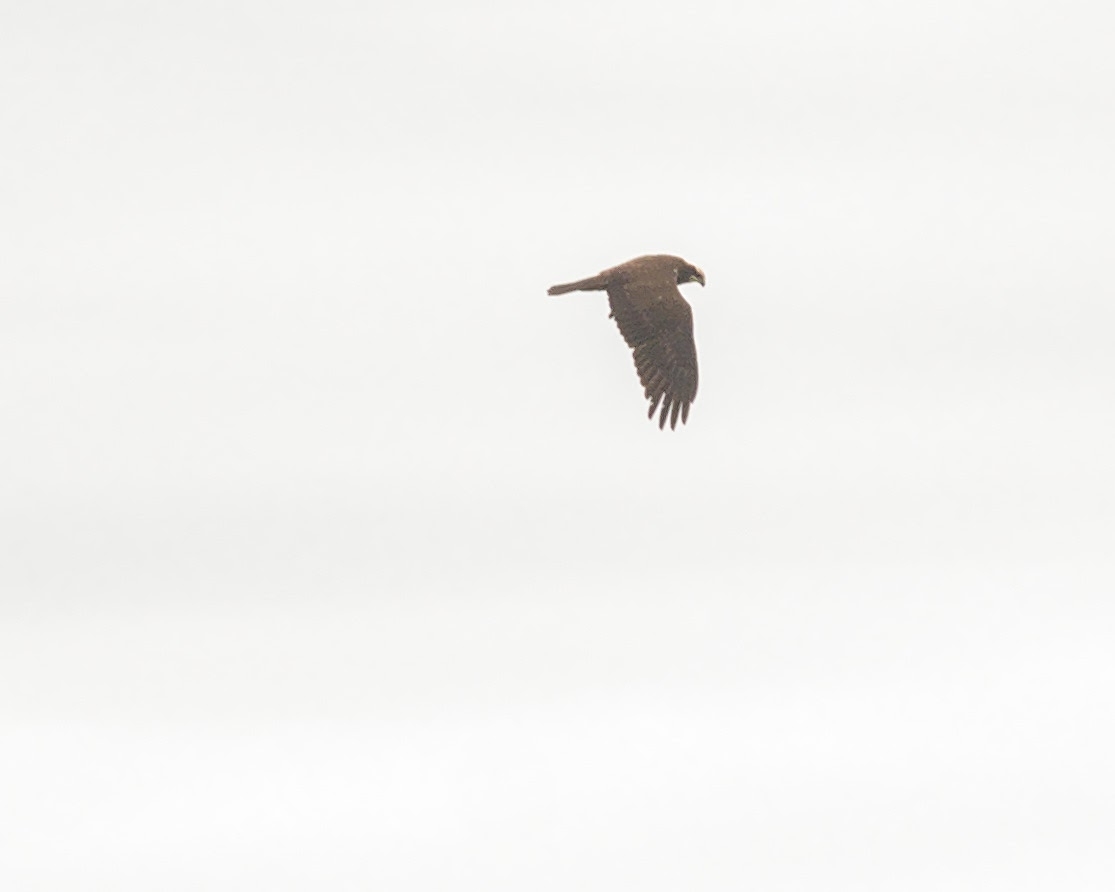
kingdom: Animalia
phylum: Chordata
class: Aves
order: Accipitriformes
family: Accipitridae
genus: Circus
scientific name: Circus aeruginosus
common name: Western marsh harrier
